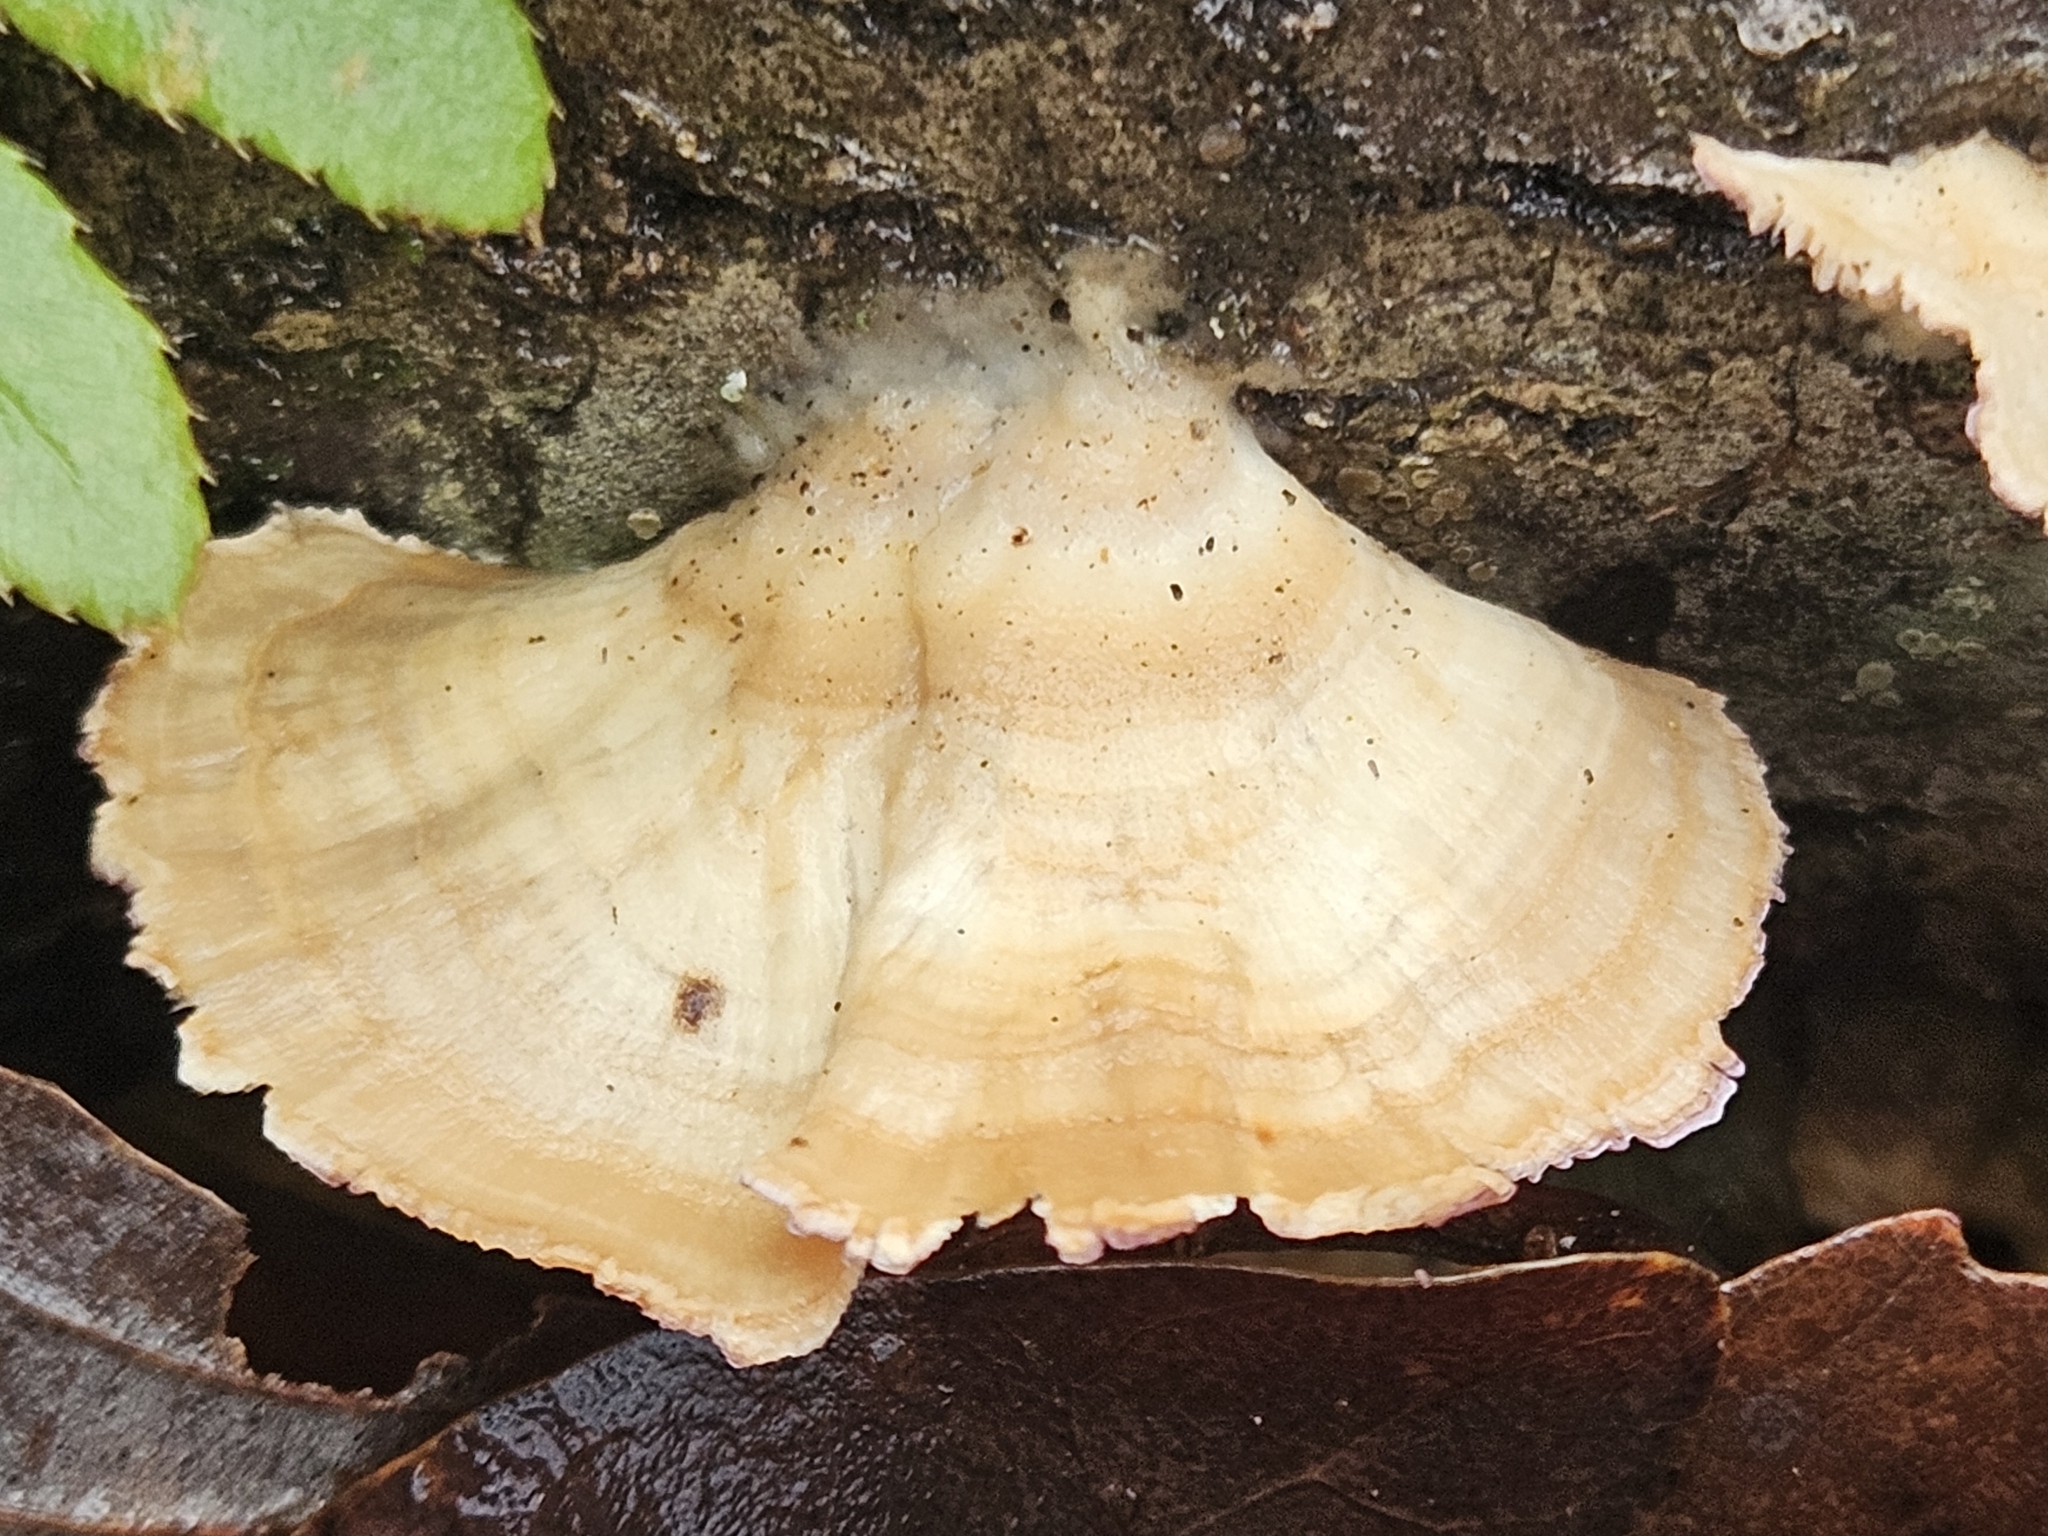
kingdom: Fungi
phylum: Basidiomycota
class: Agaricomycetes
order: Hymenochaetales
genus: Trichaptum
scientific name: Trichaptum biforme
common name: Violet-toothed polypore
